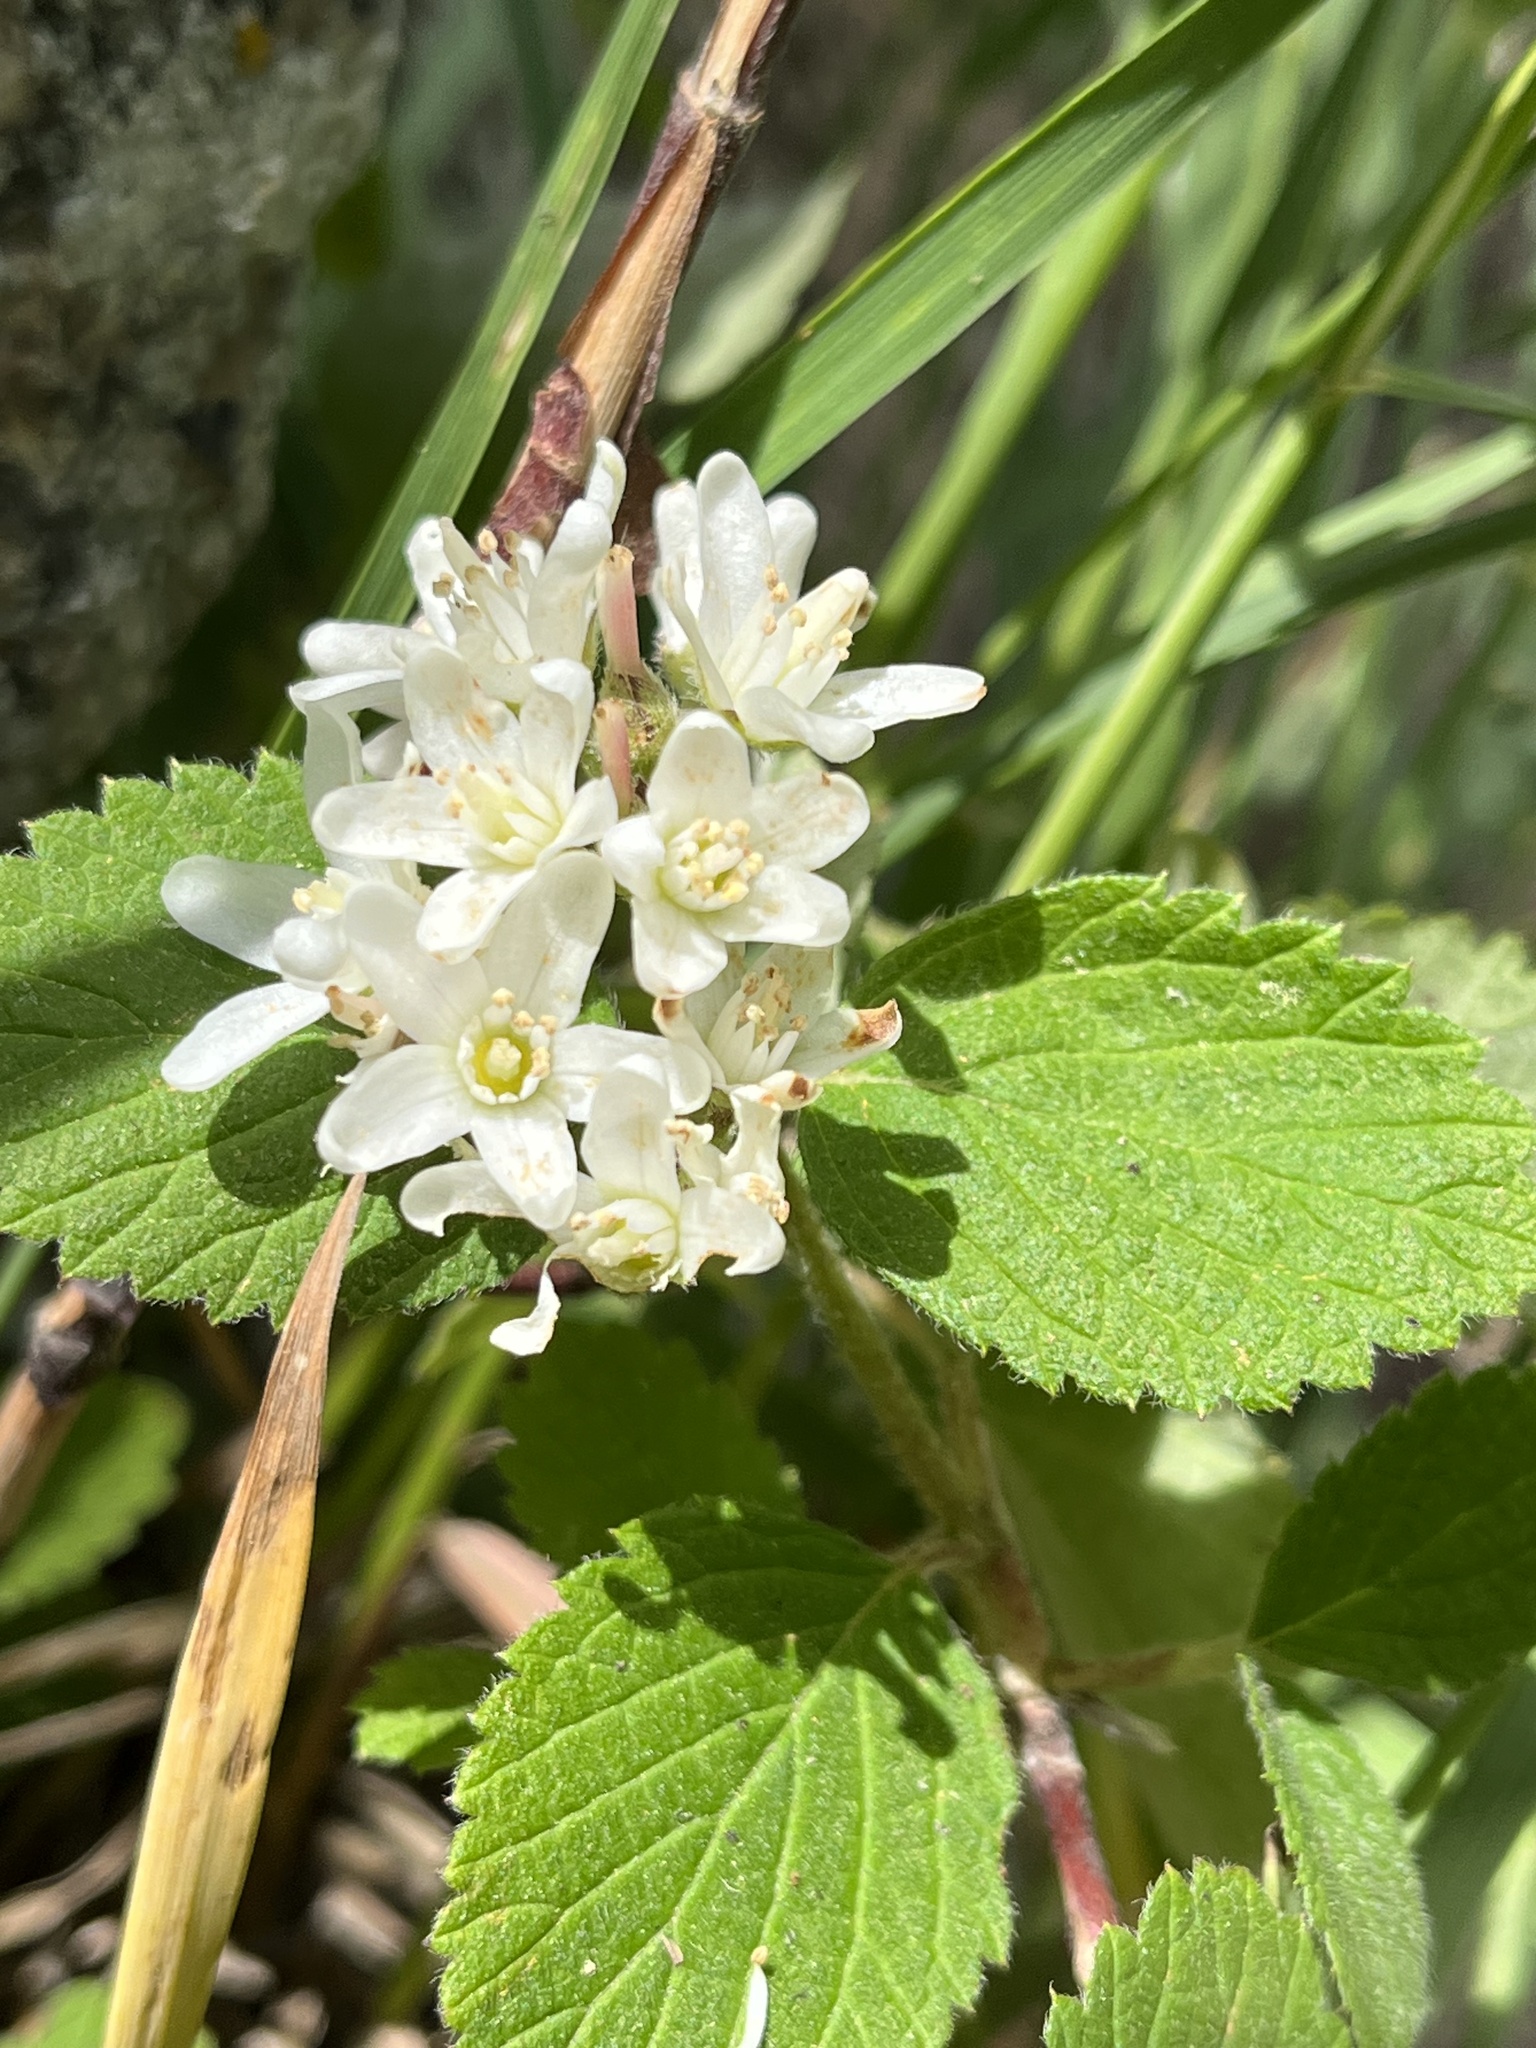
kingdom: Plantae
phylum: Tracheophyta
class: Magnoliopsida
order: Cornales
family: Hydrangeaceae
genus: Jamesia
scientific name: Jamesia americana
